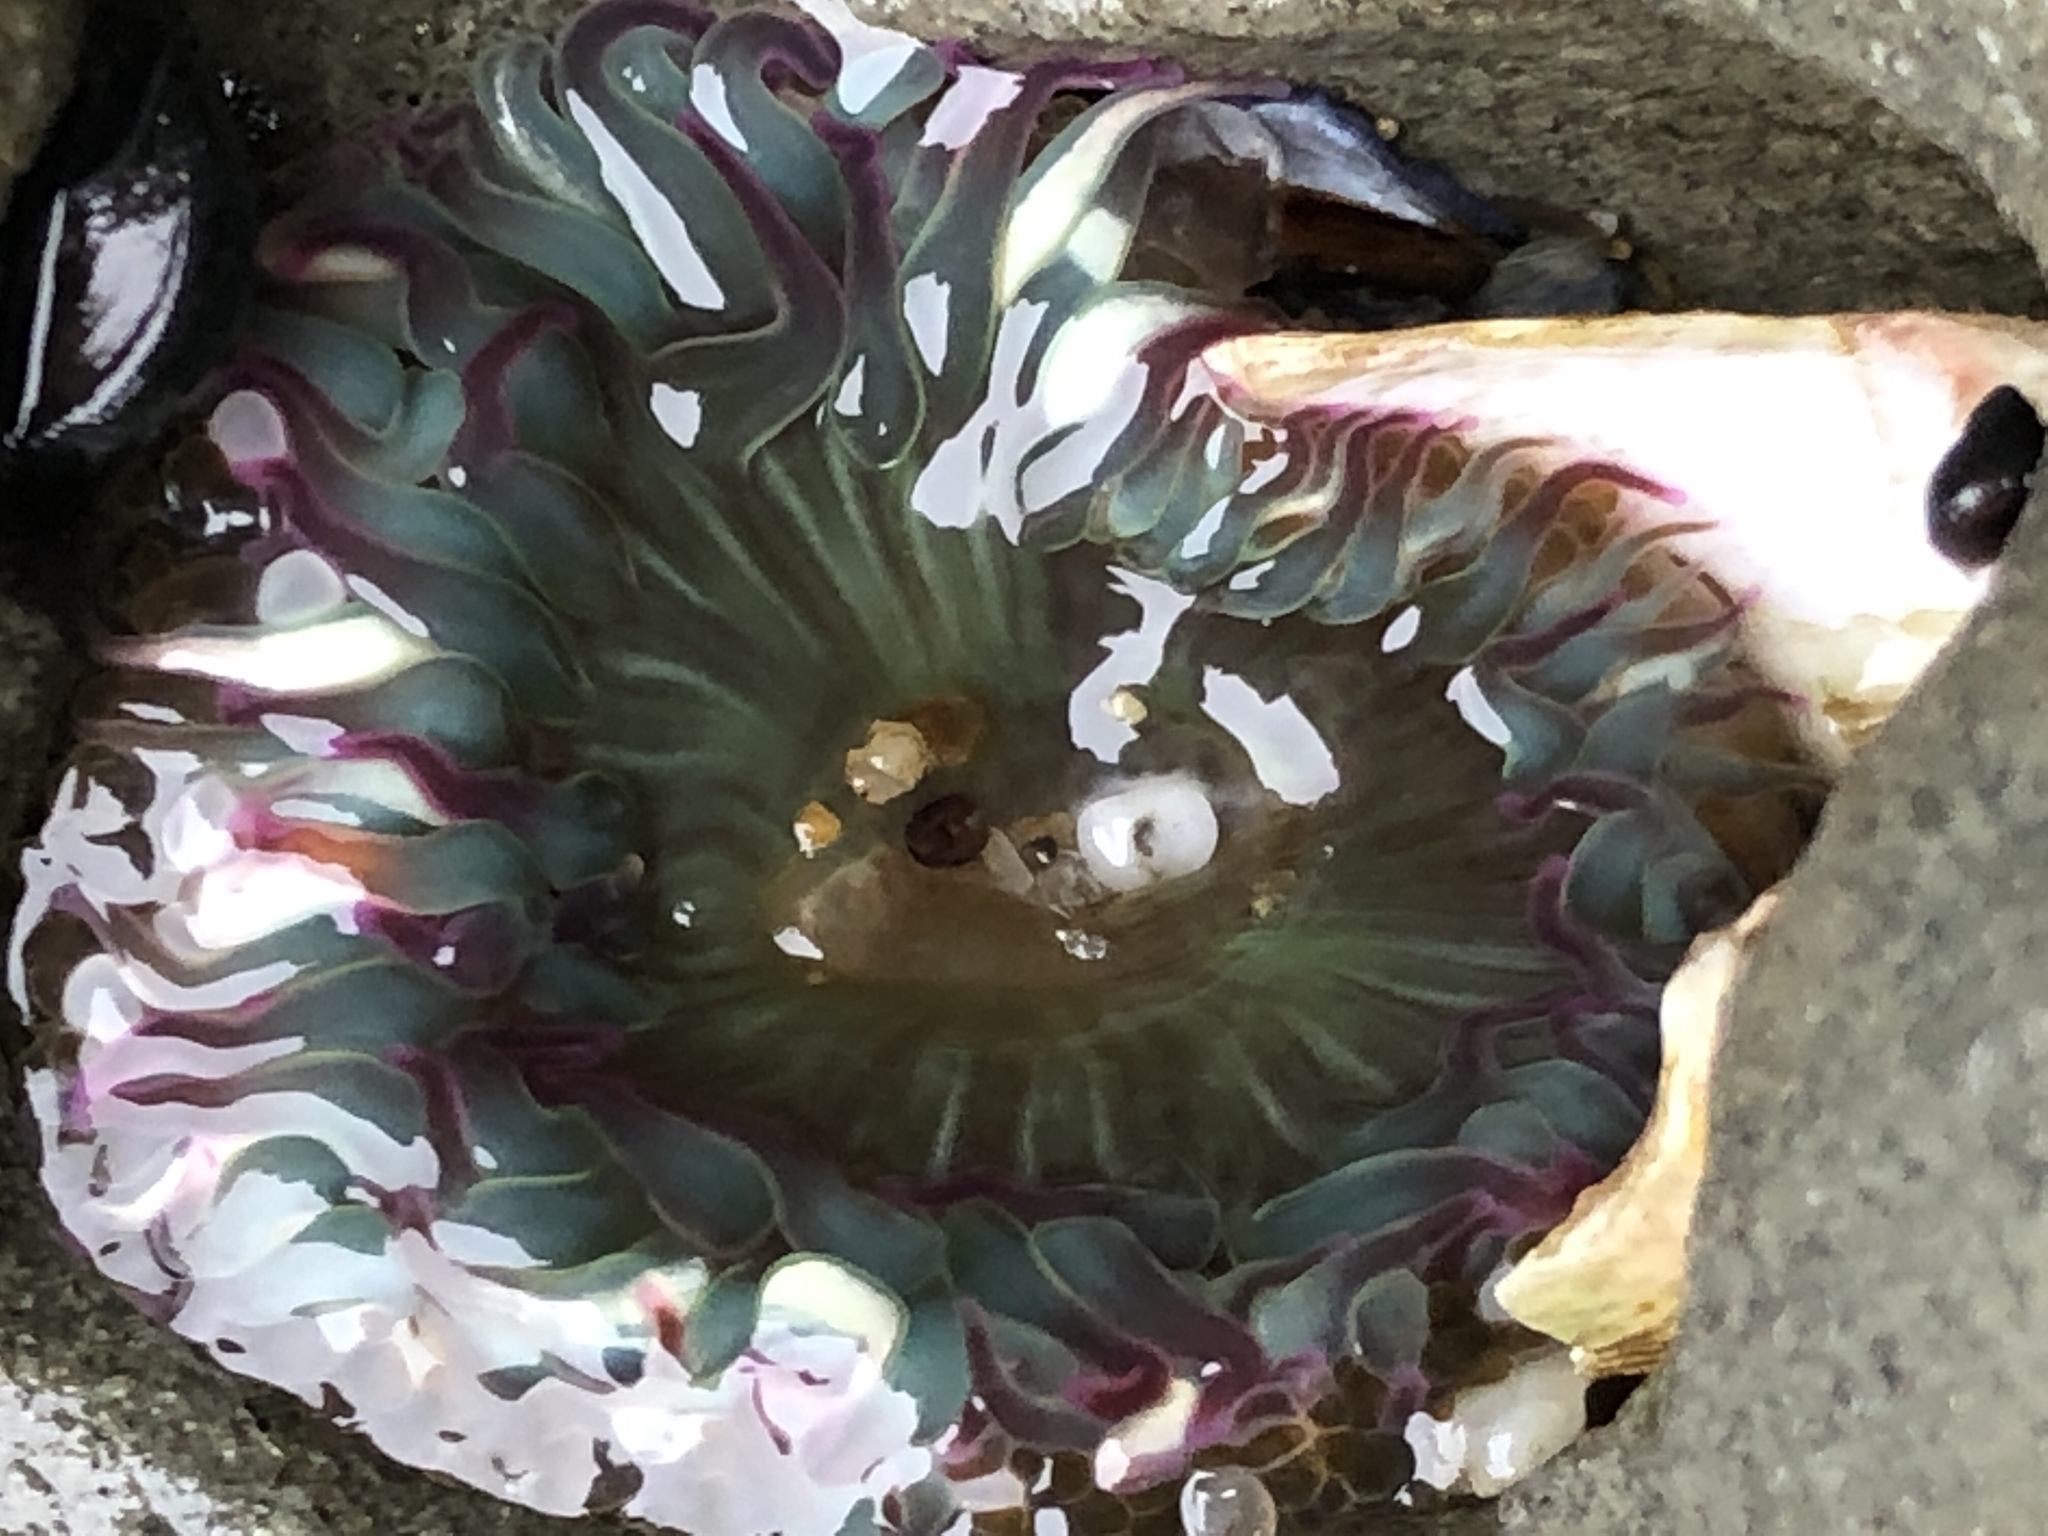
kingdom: Animalia
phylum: Cnidaria
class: Anthozoa
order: Actiniaria
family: Actiniidae
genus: Anthopleura
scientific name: Anthopleura sola
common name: Sun anemone
